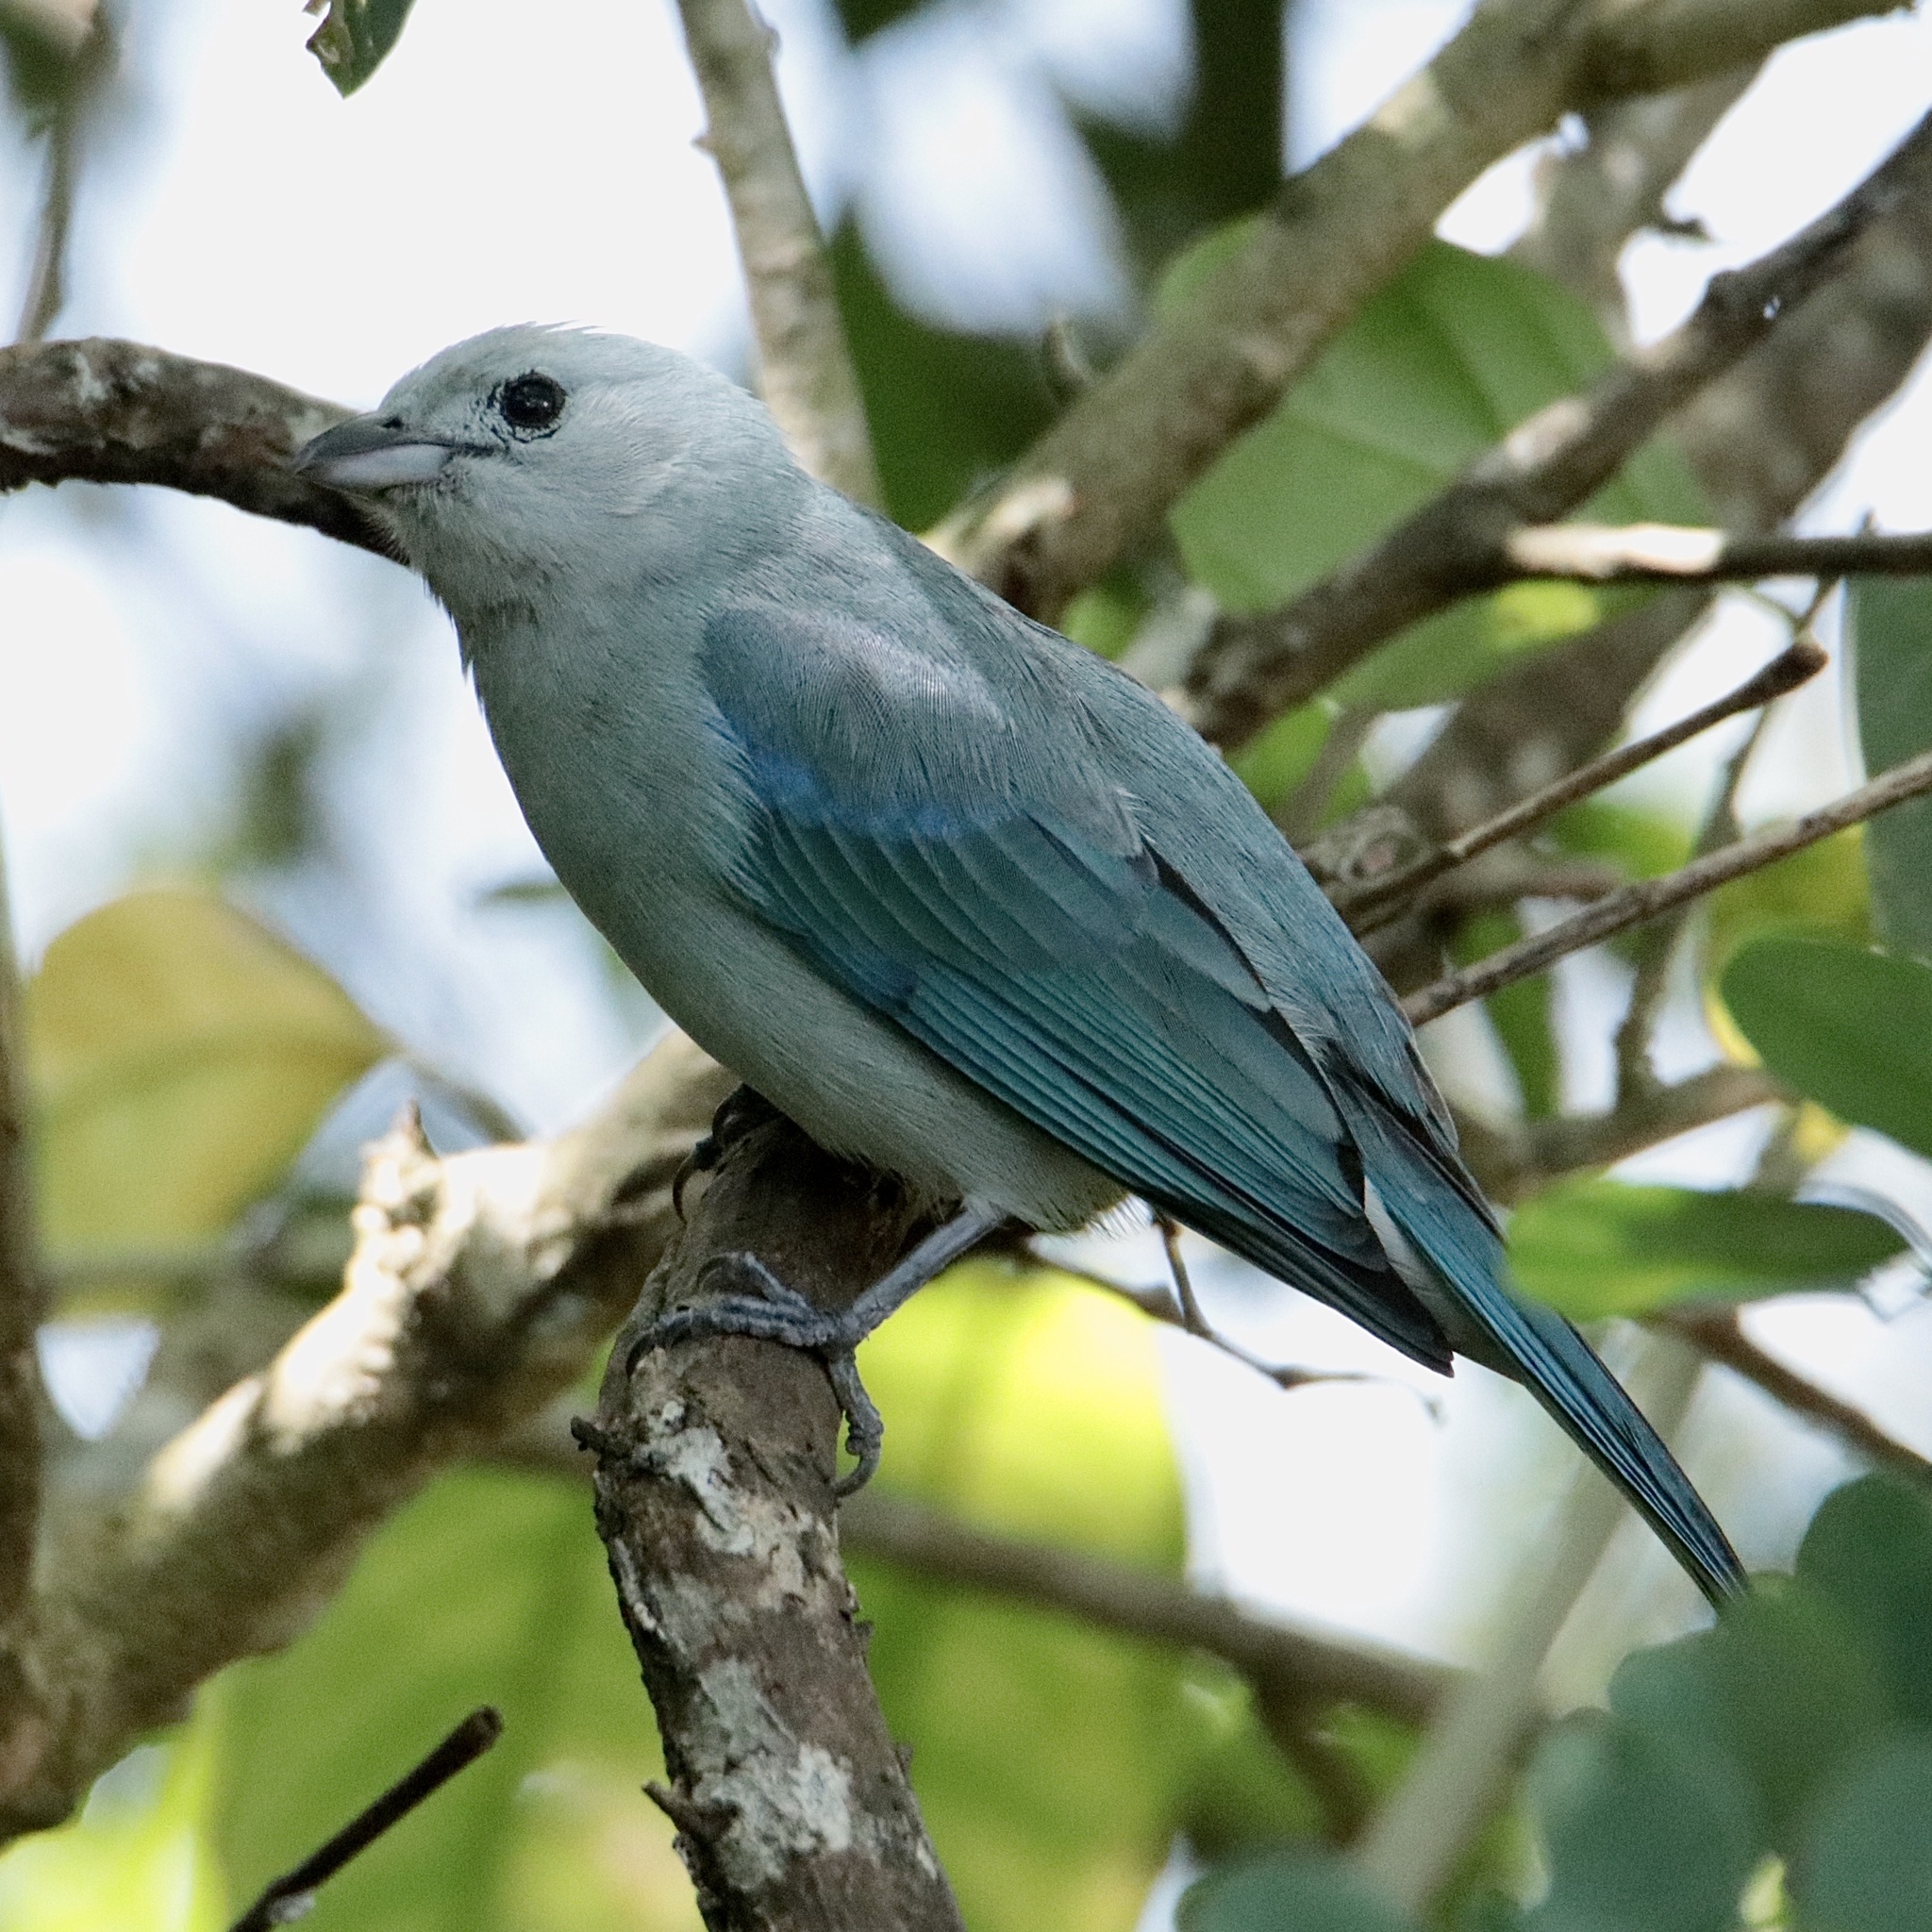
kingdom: Animalia
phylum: Chordata
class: Aves
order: Passeriformes
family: Thraupidae
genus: Thraupis
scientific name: Thraupis episcopus
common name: Blue-grey tanager
